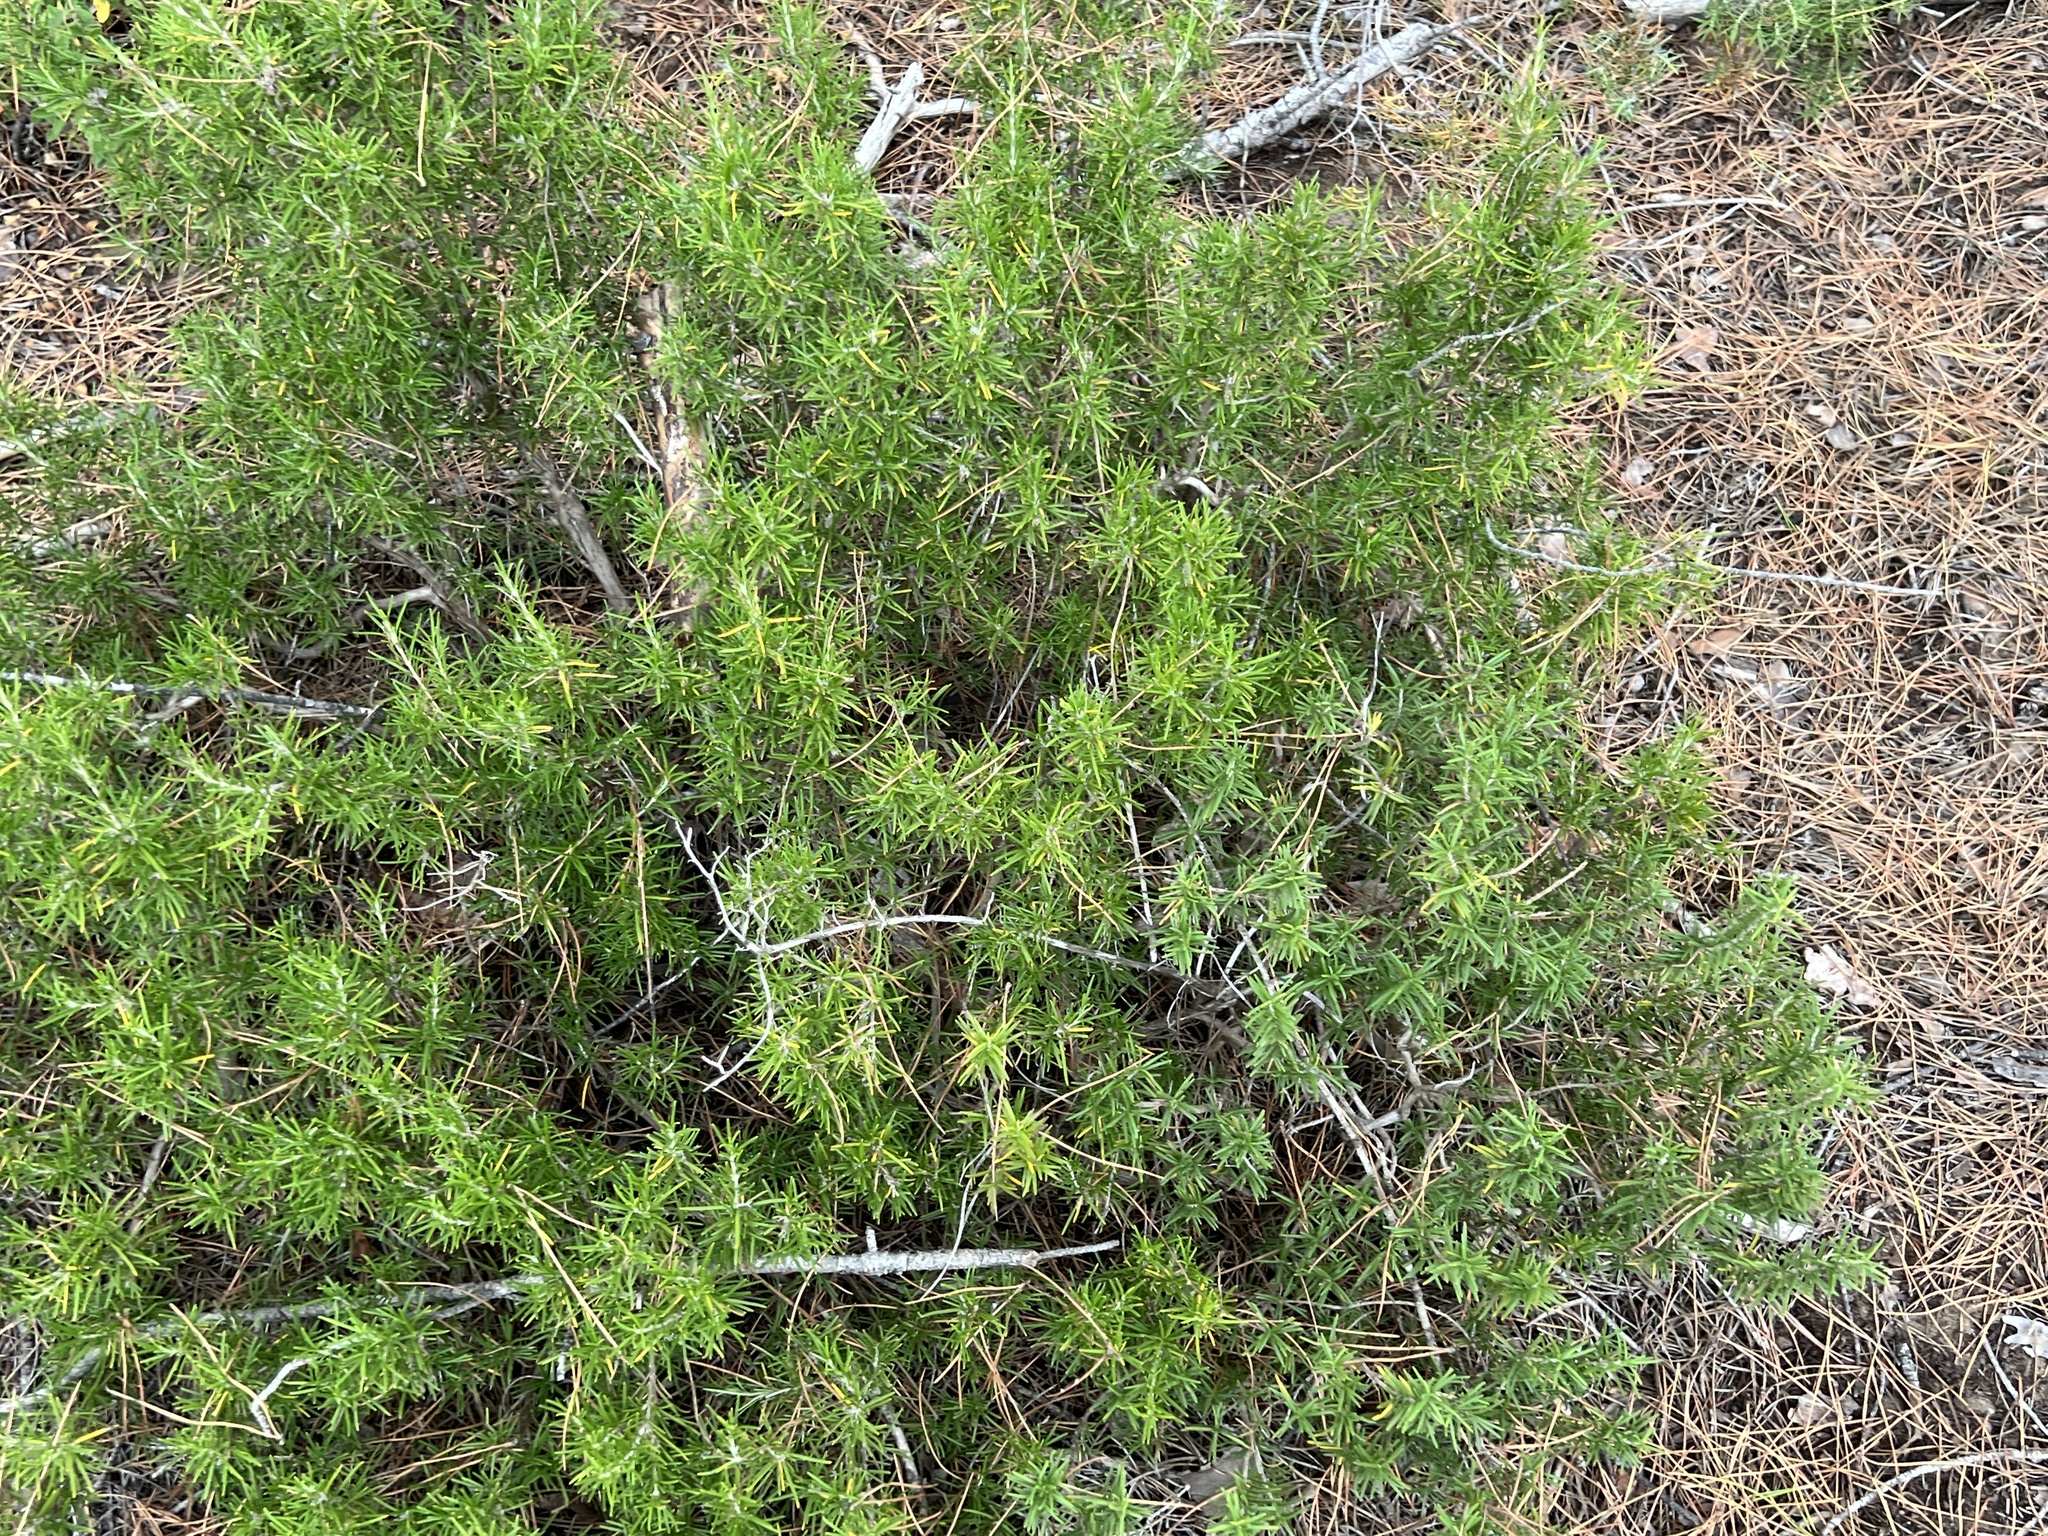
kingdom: Plantae
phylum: Tracheophyta
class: Magnoliopsida
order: Lamiales
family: Lamiaceae
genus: Salvia
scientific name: Salvia rosmarinus
